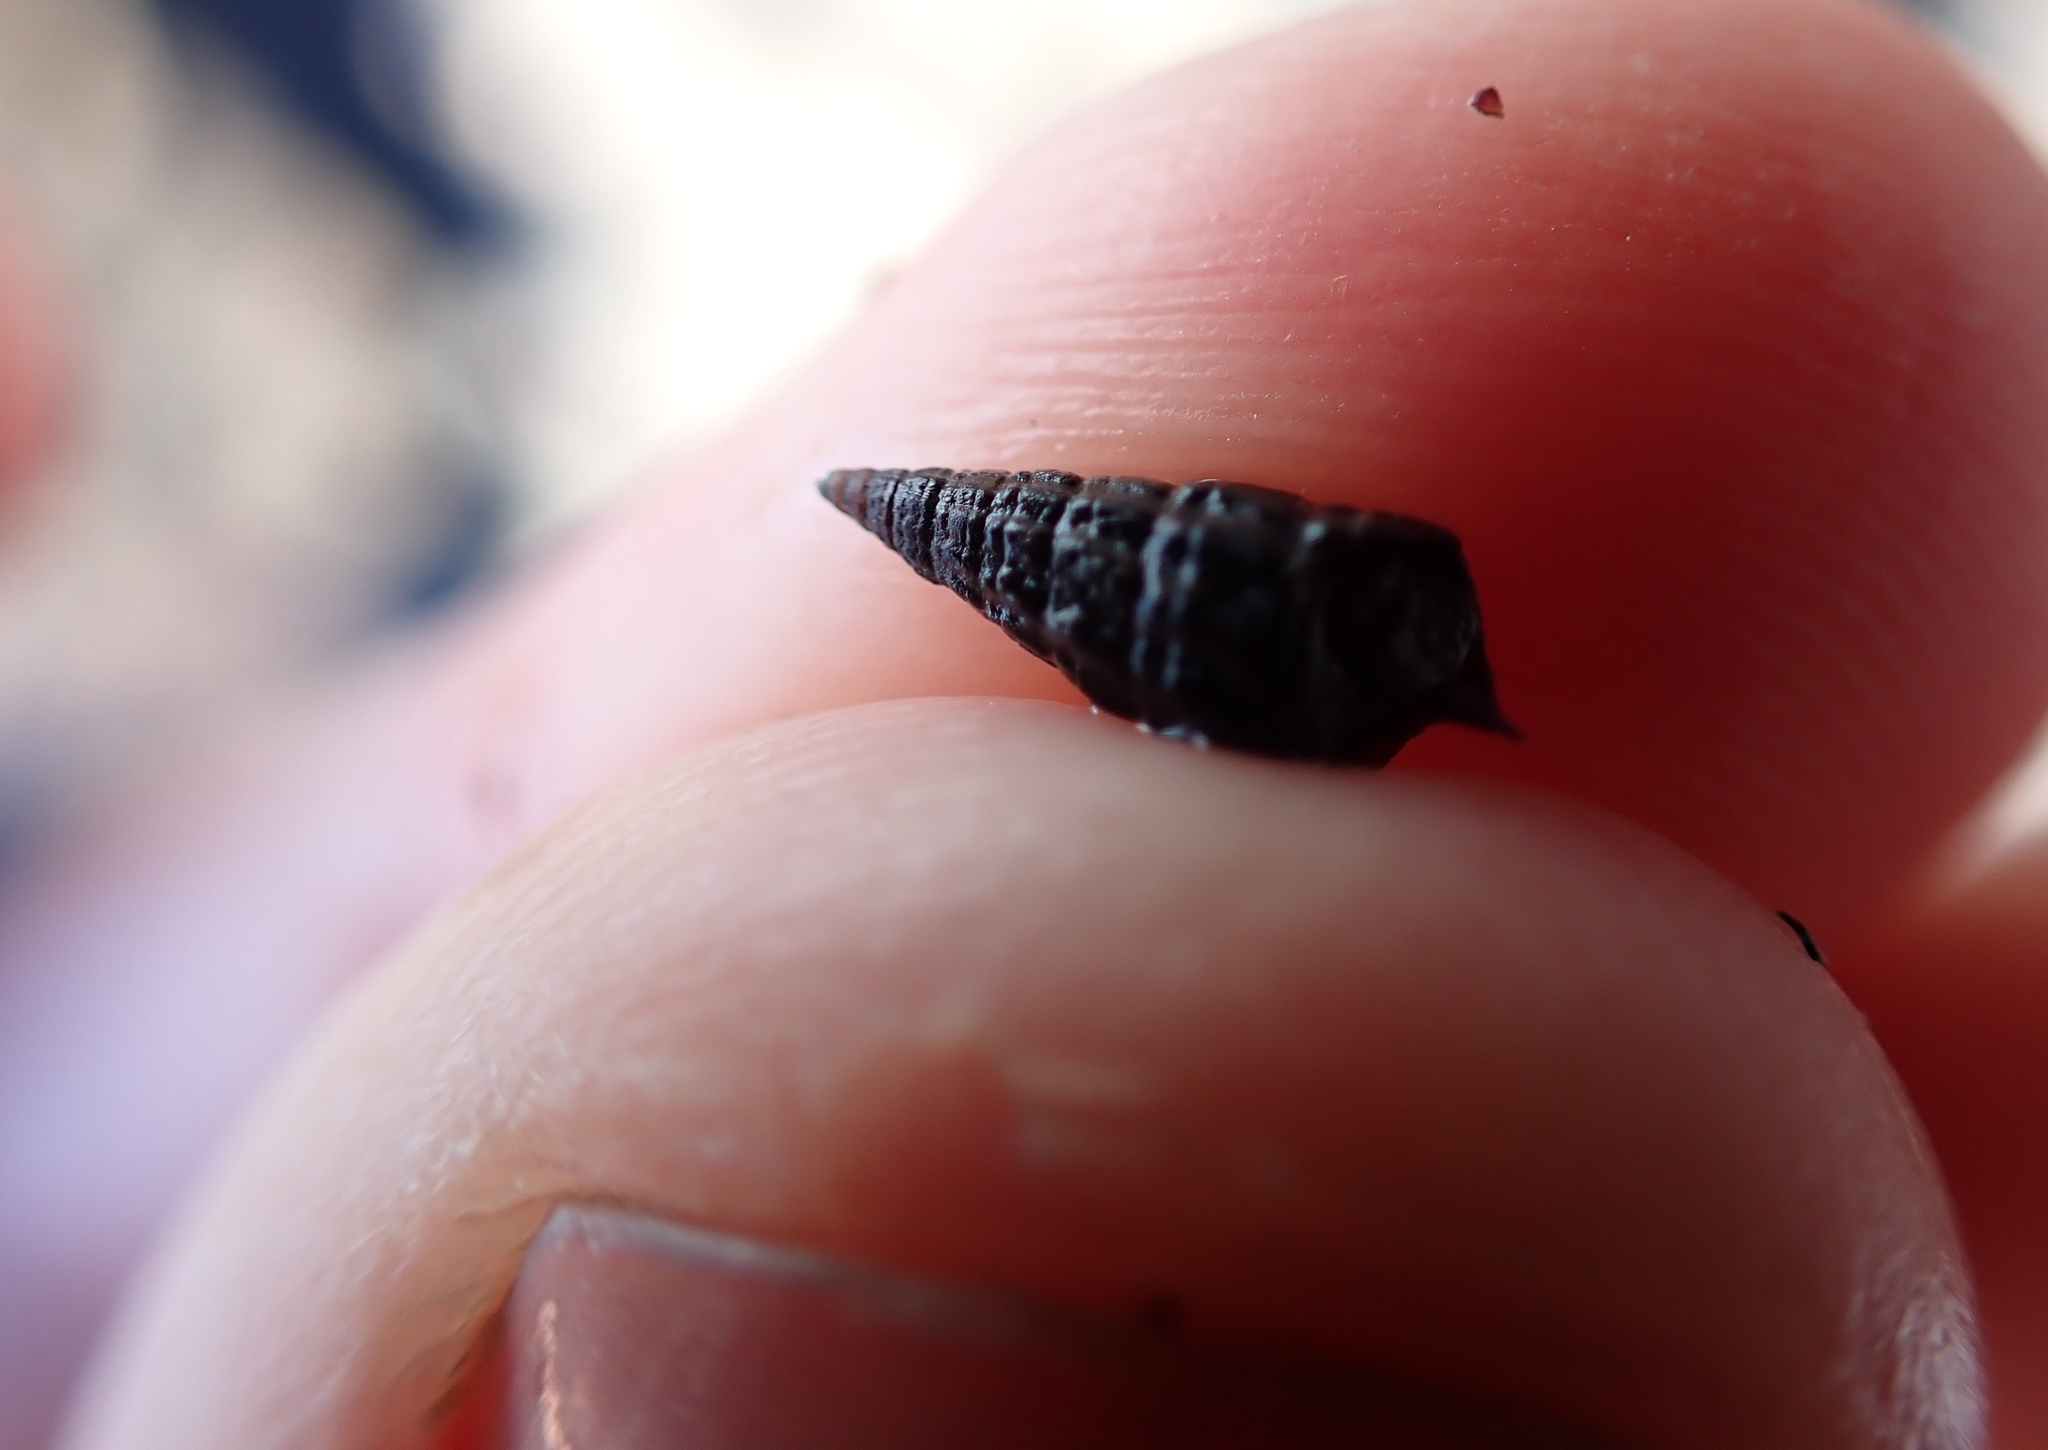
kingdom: Animalia
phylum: Mollusca
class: Gastropoda
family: Batillariidae
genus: Zeacumantus
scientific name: Zeacumantus subcarinatus
